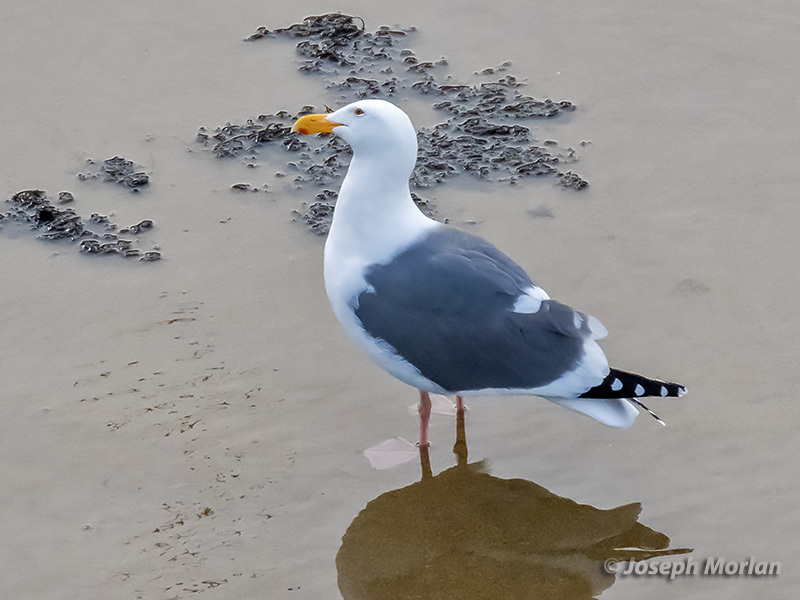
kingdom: Animalia
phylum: Chordata
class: Aves
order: Charadriiformes
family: Laridae
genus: Larus
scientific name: Larus occidentalis
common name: Western gull
